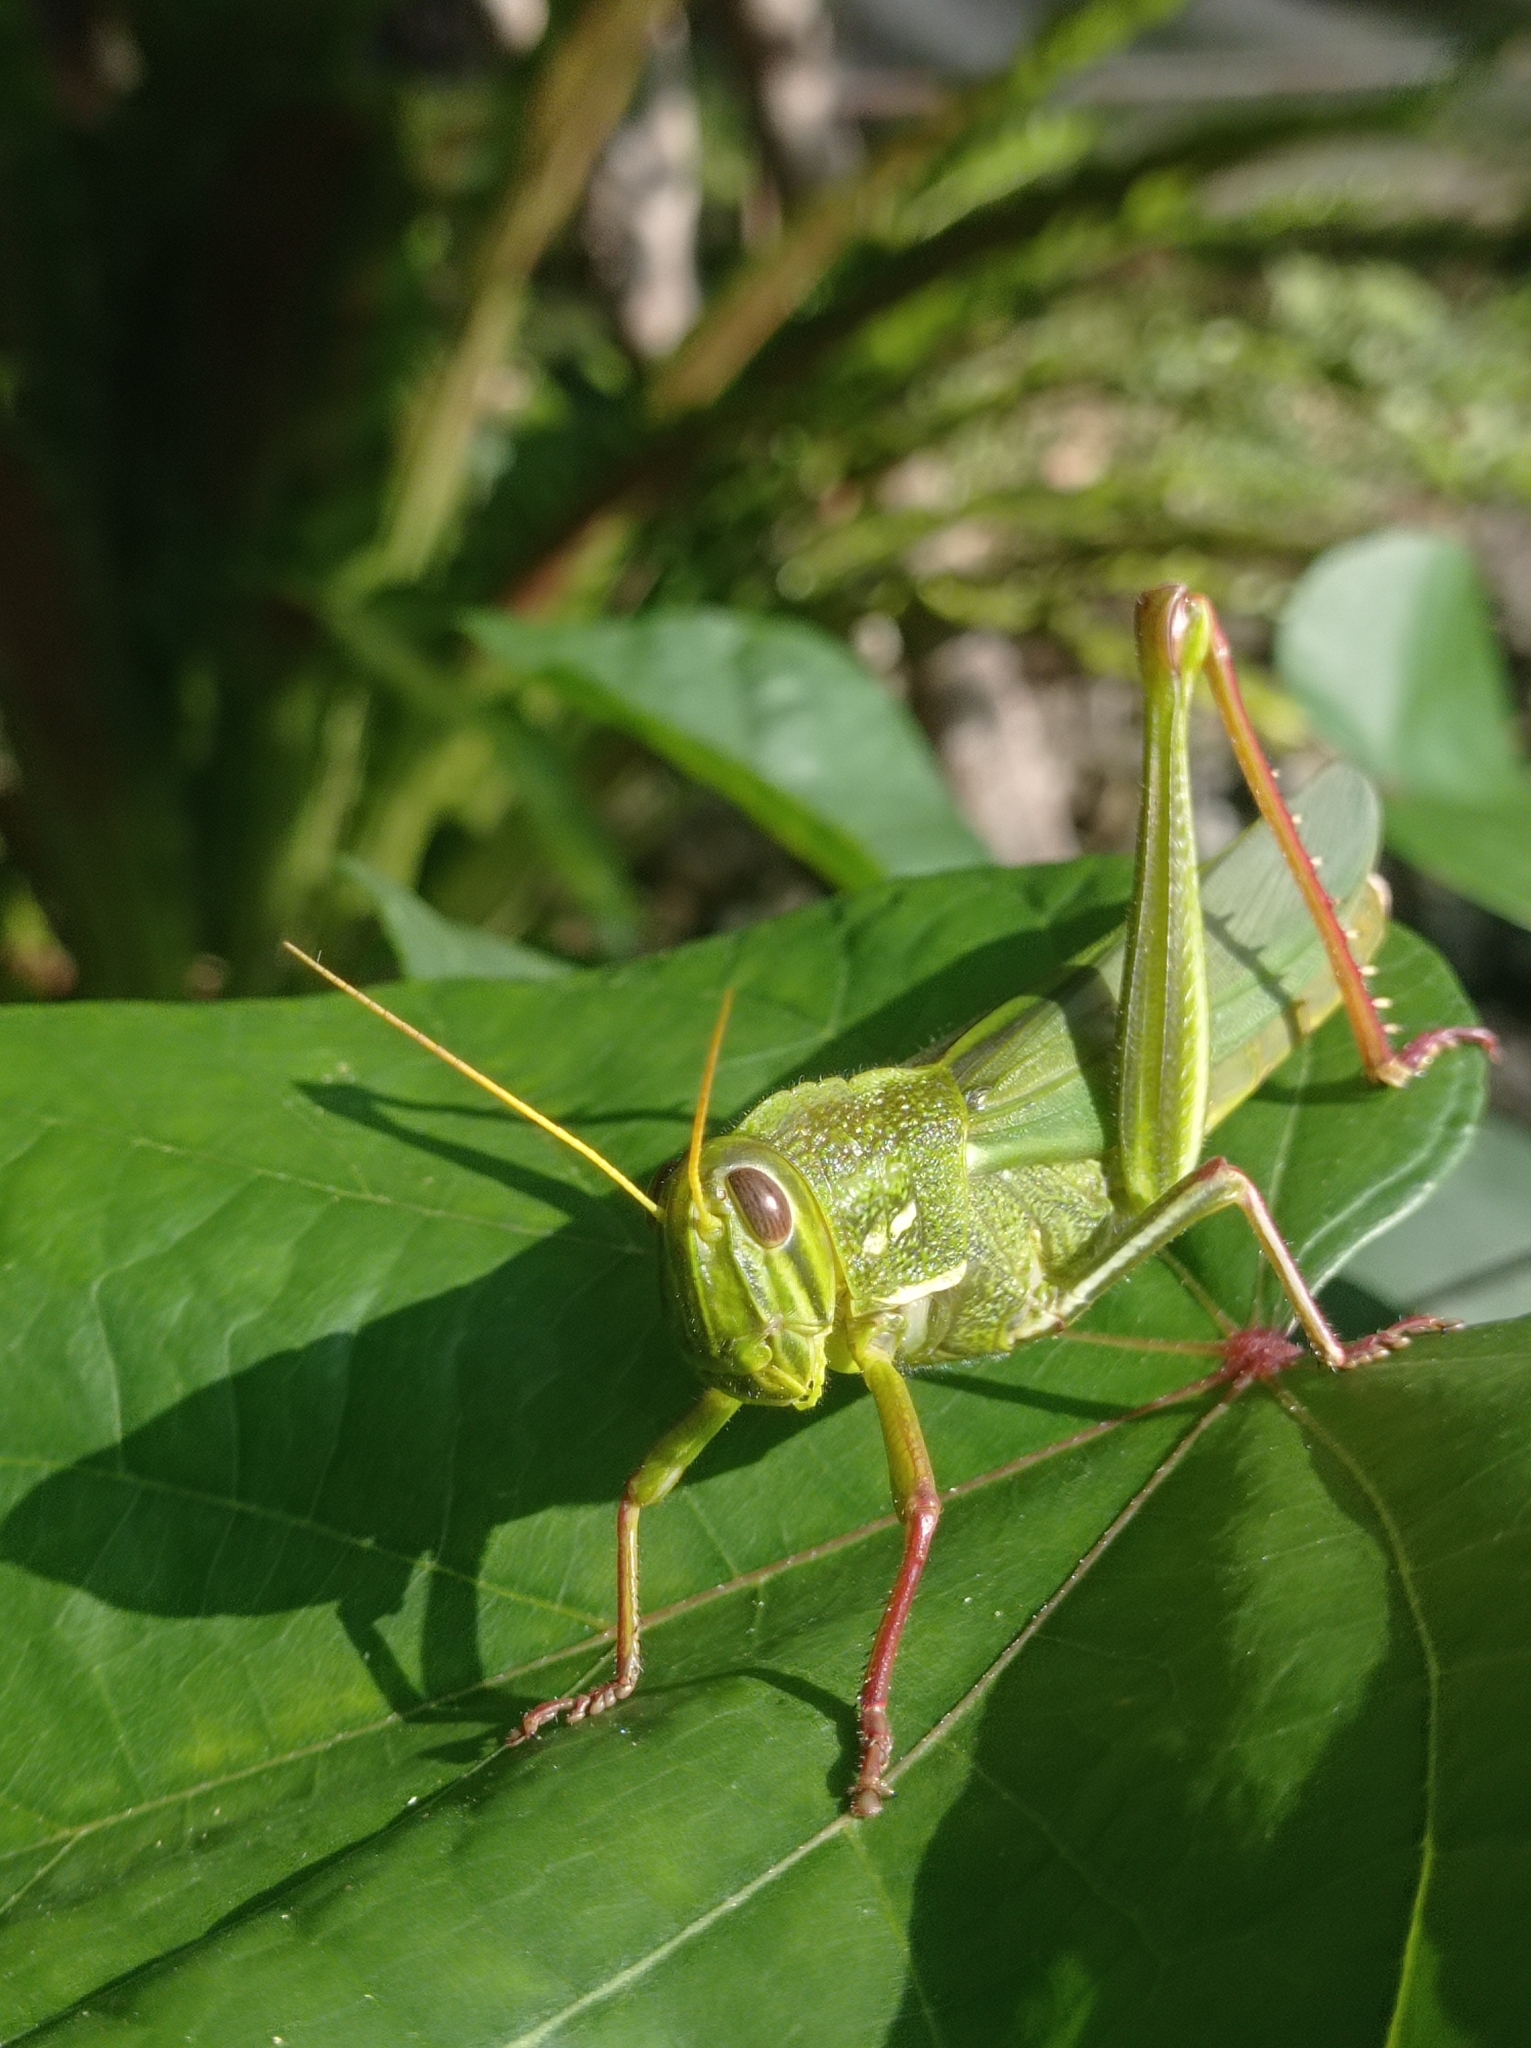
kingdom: Animalia
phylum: Arthropoda
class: Insecta
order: Orthoptera
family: Acrididae
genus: Chondracris
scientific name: Chondracris rosea
